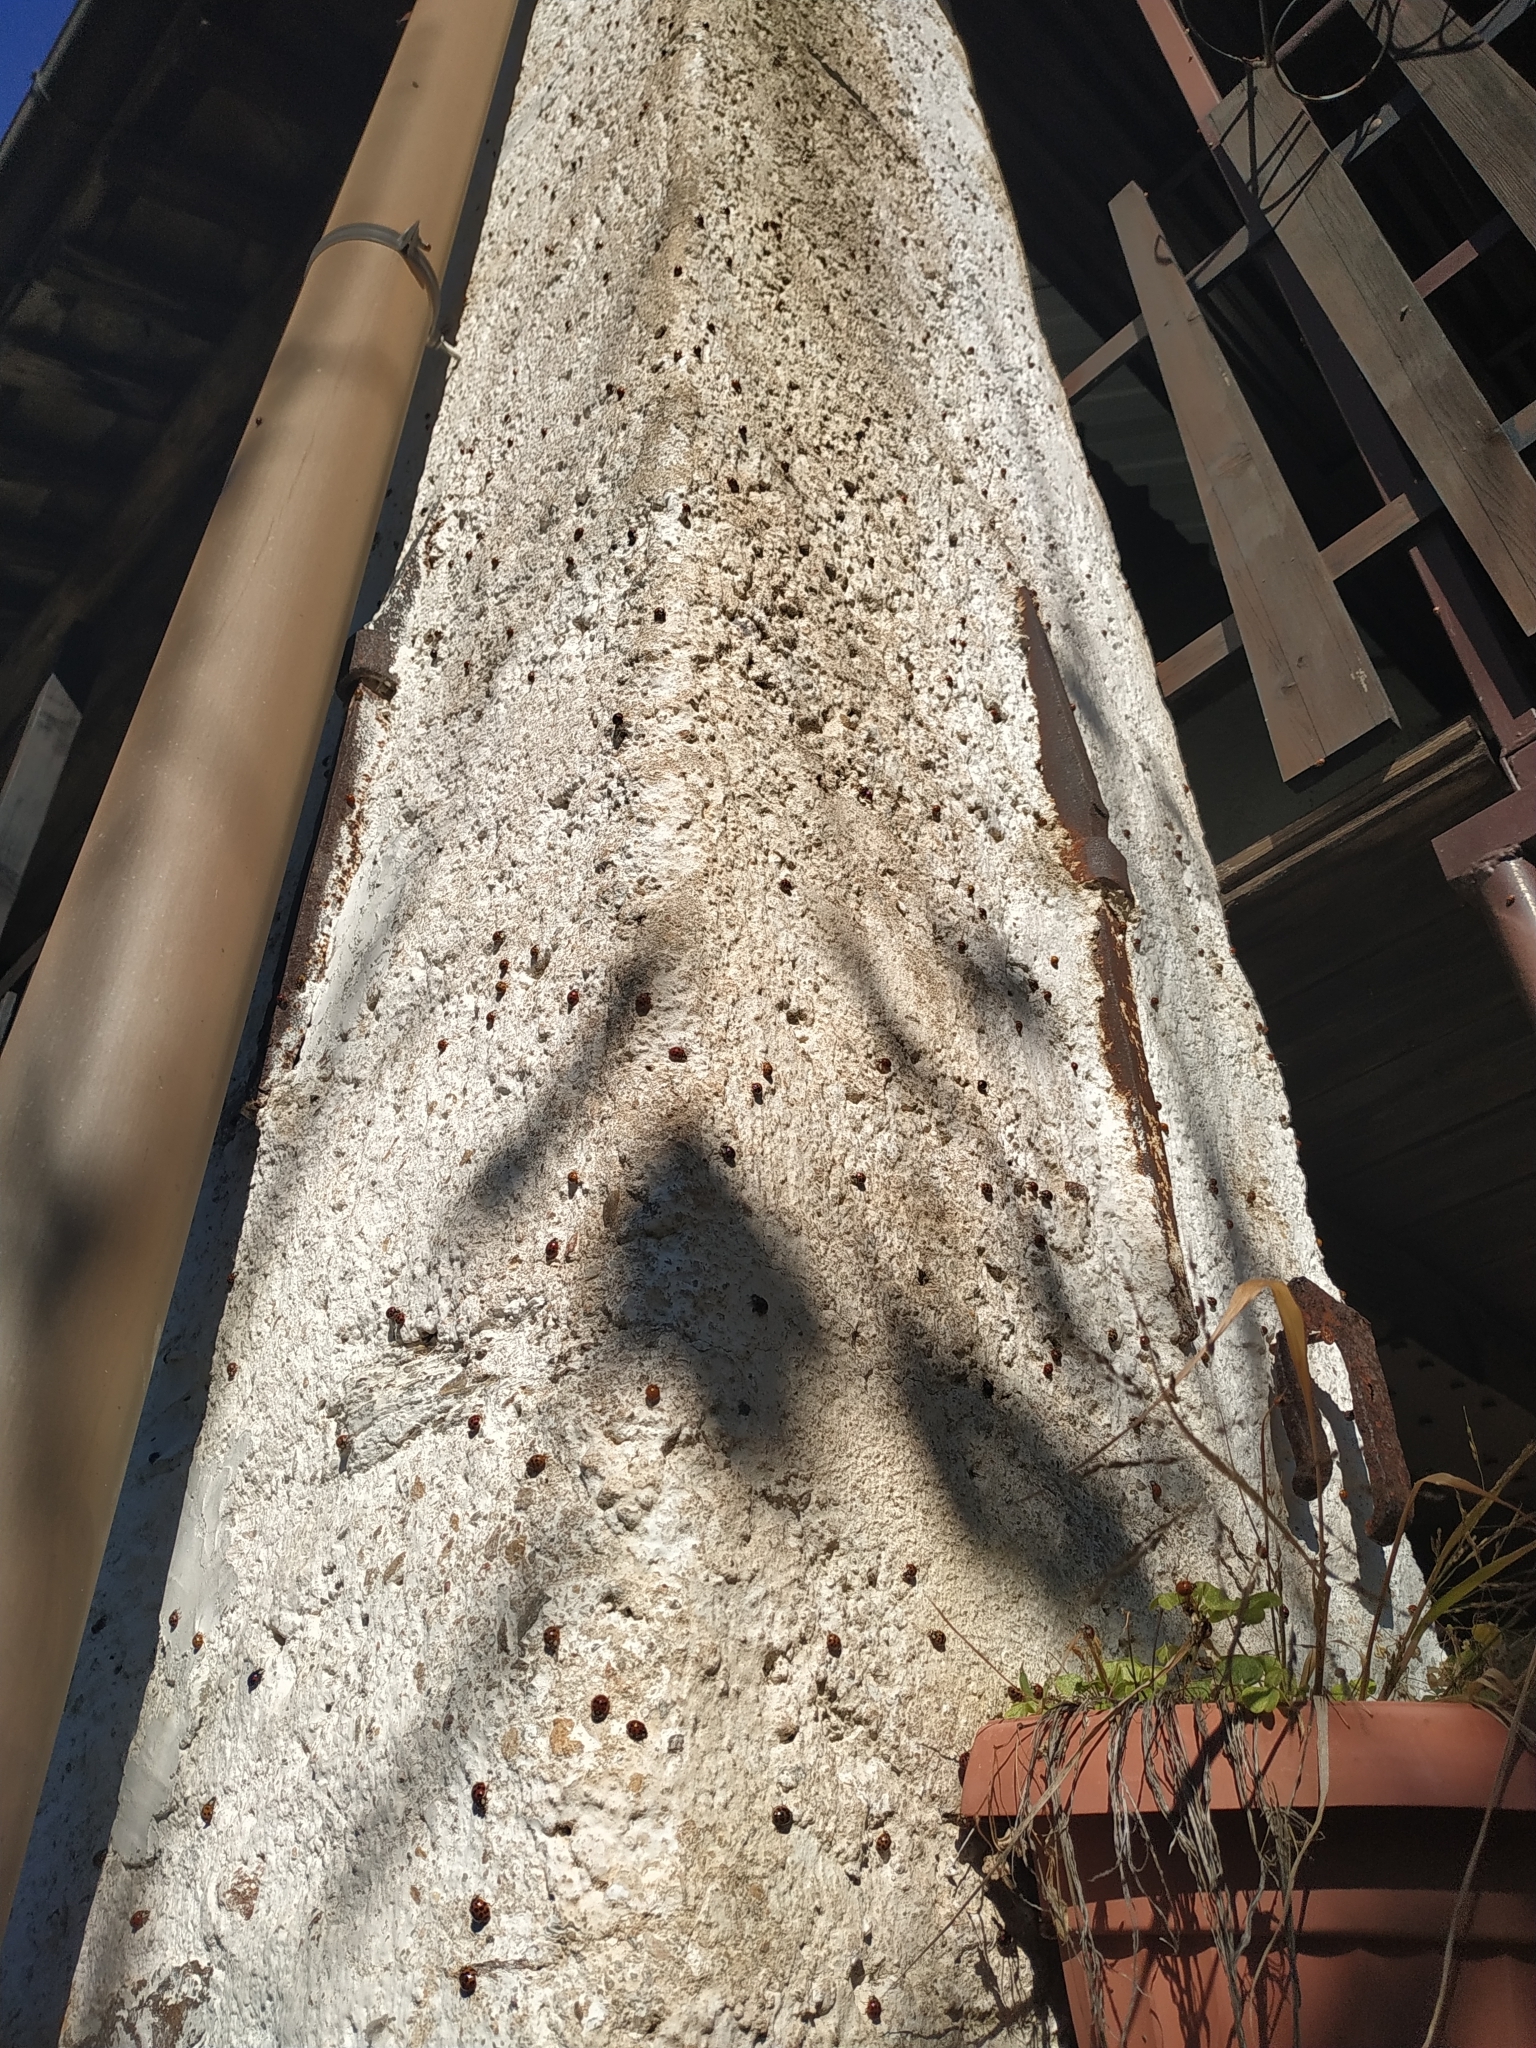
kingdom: Animalia
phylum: Arthropoda
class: Insecta
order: Coleoptera
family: Coccinellidae
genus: Harmonia
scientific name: Harmonia axyridis
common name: Harlequin ladybird
